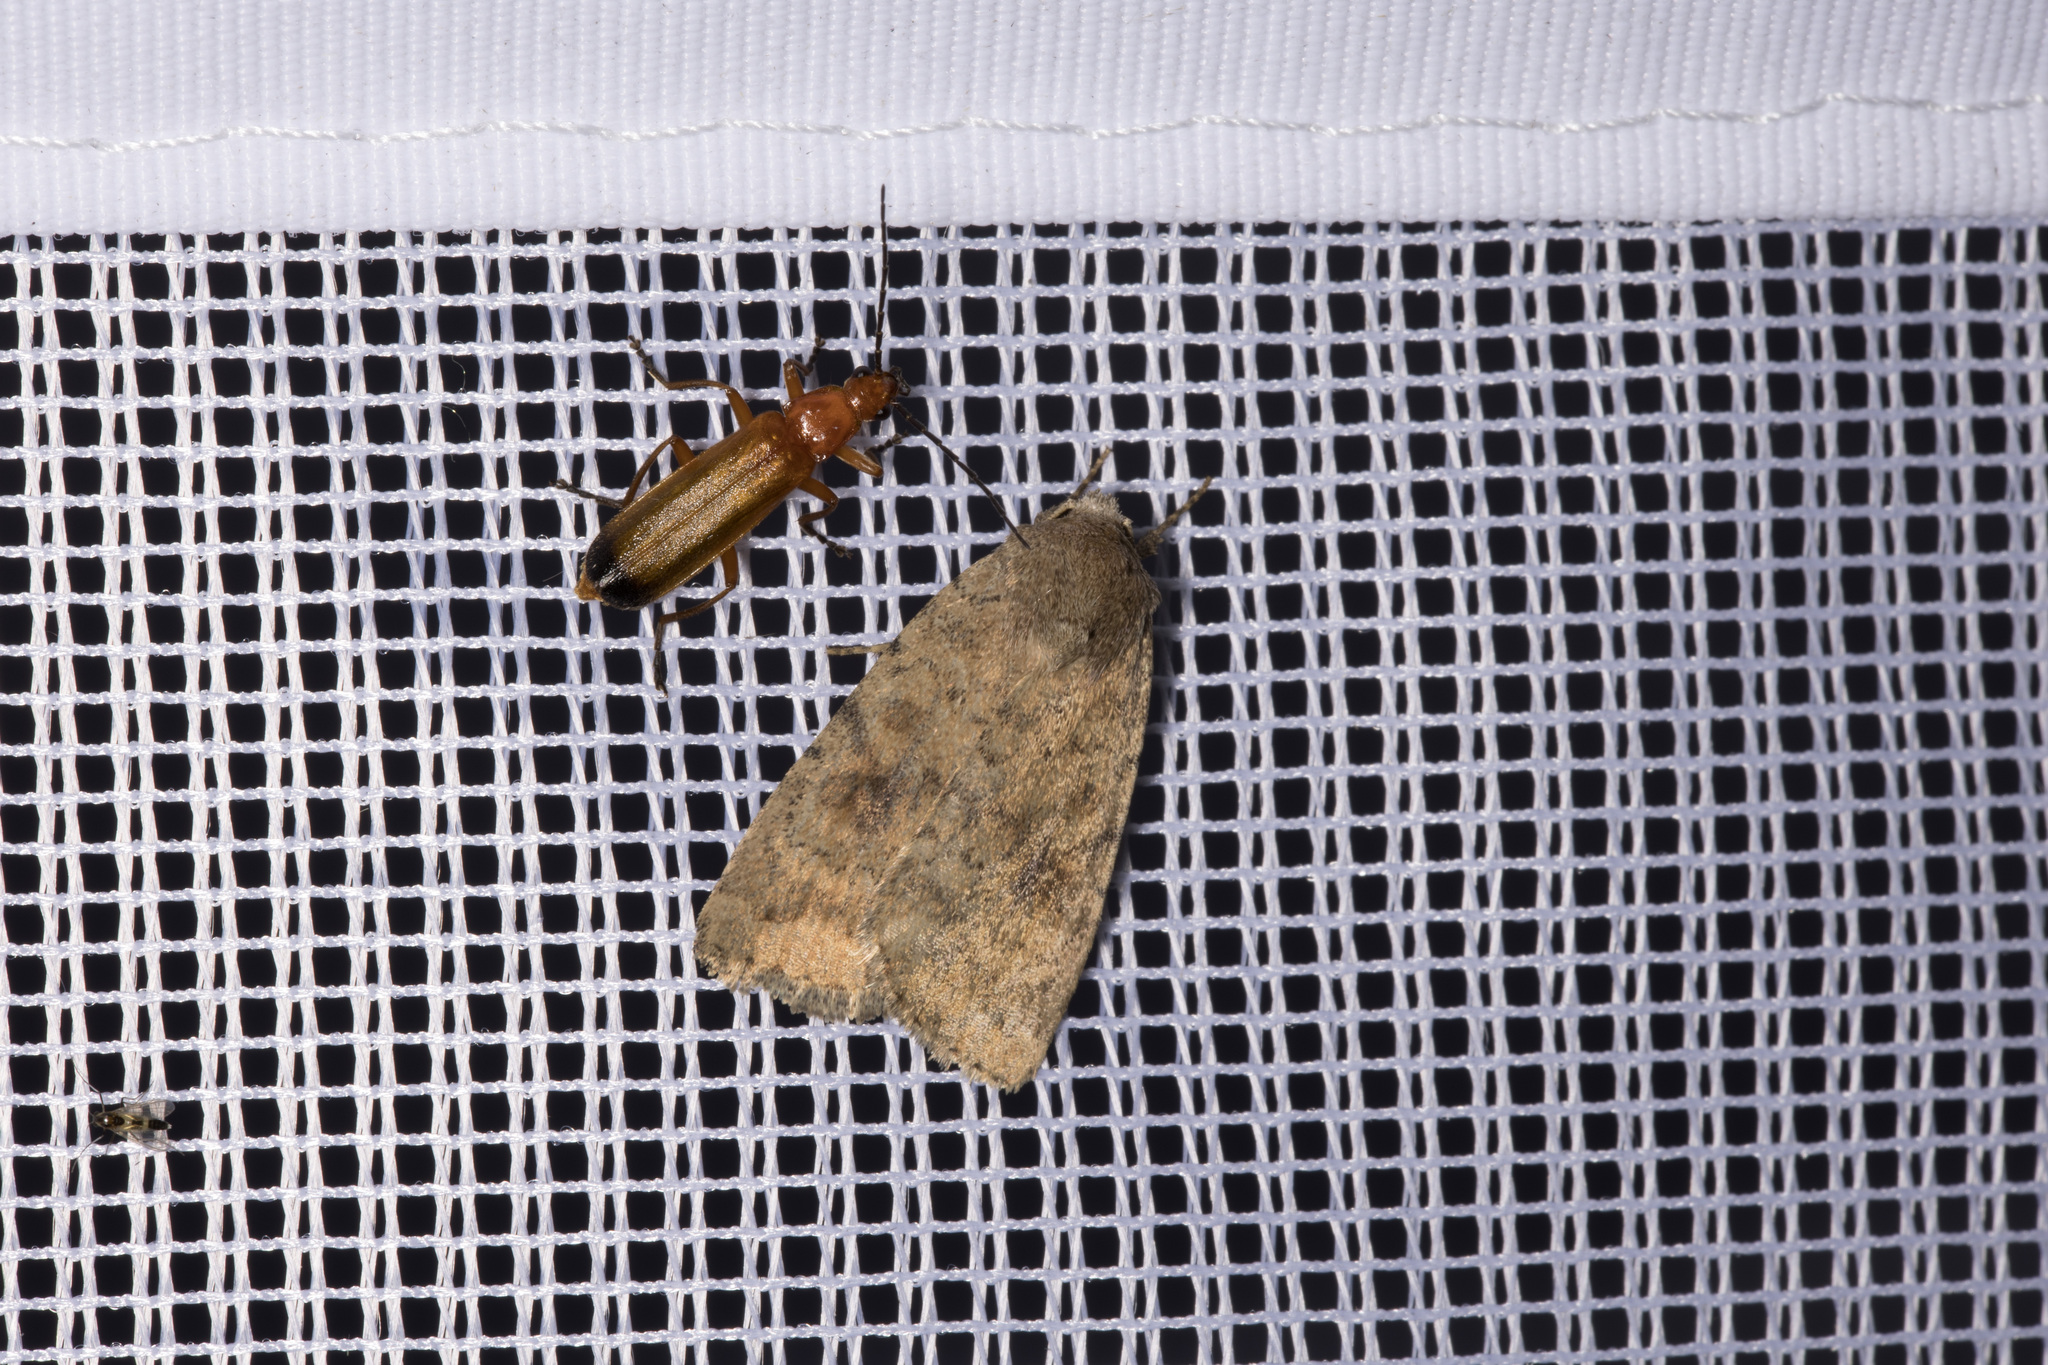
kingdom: Animalia
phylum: Arthropoda
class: Insecta
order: Coleoptera
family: Cantharidae
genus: Rhagonycha
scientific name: Rhagonycha fulva
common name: Common red soldier beetle
